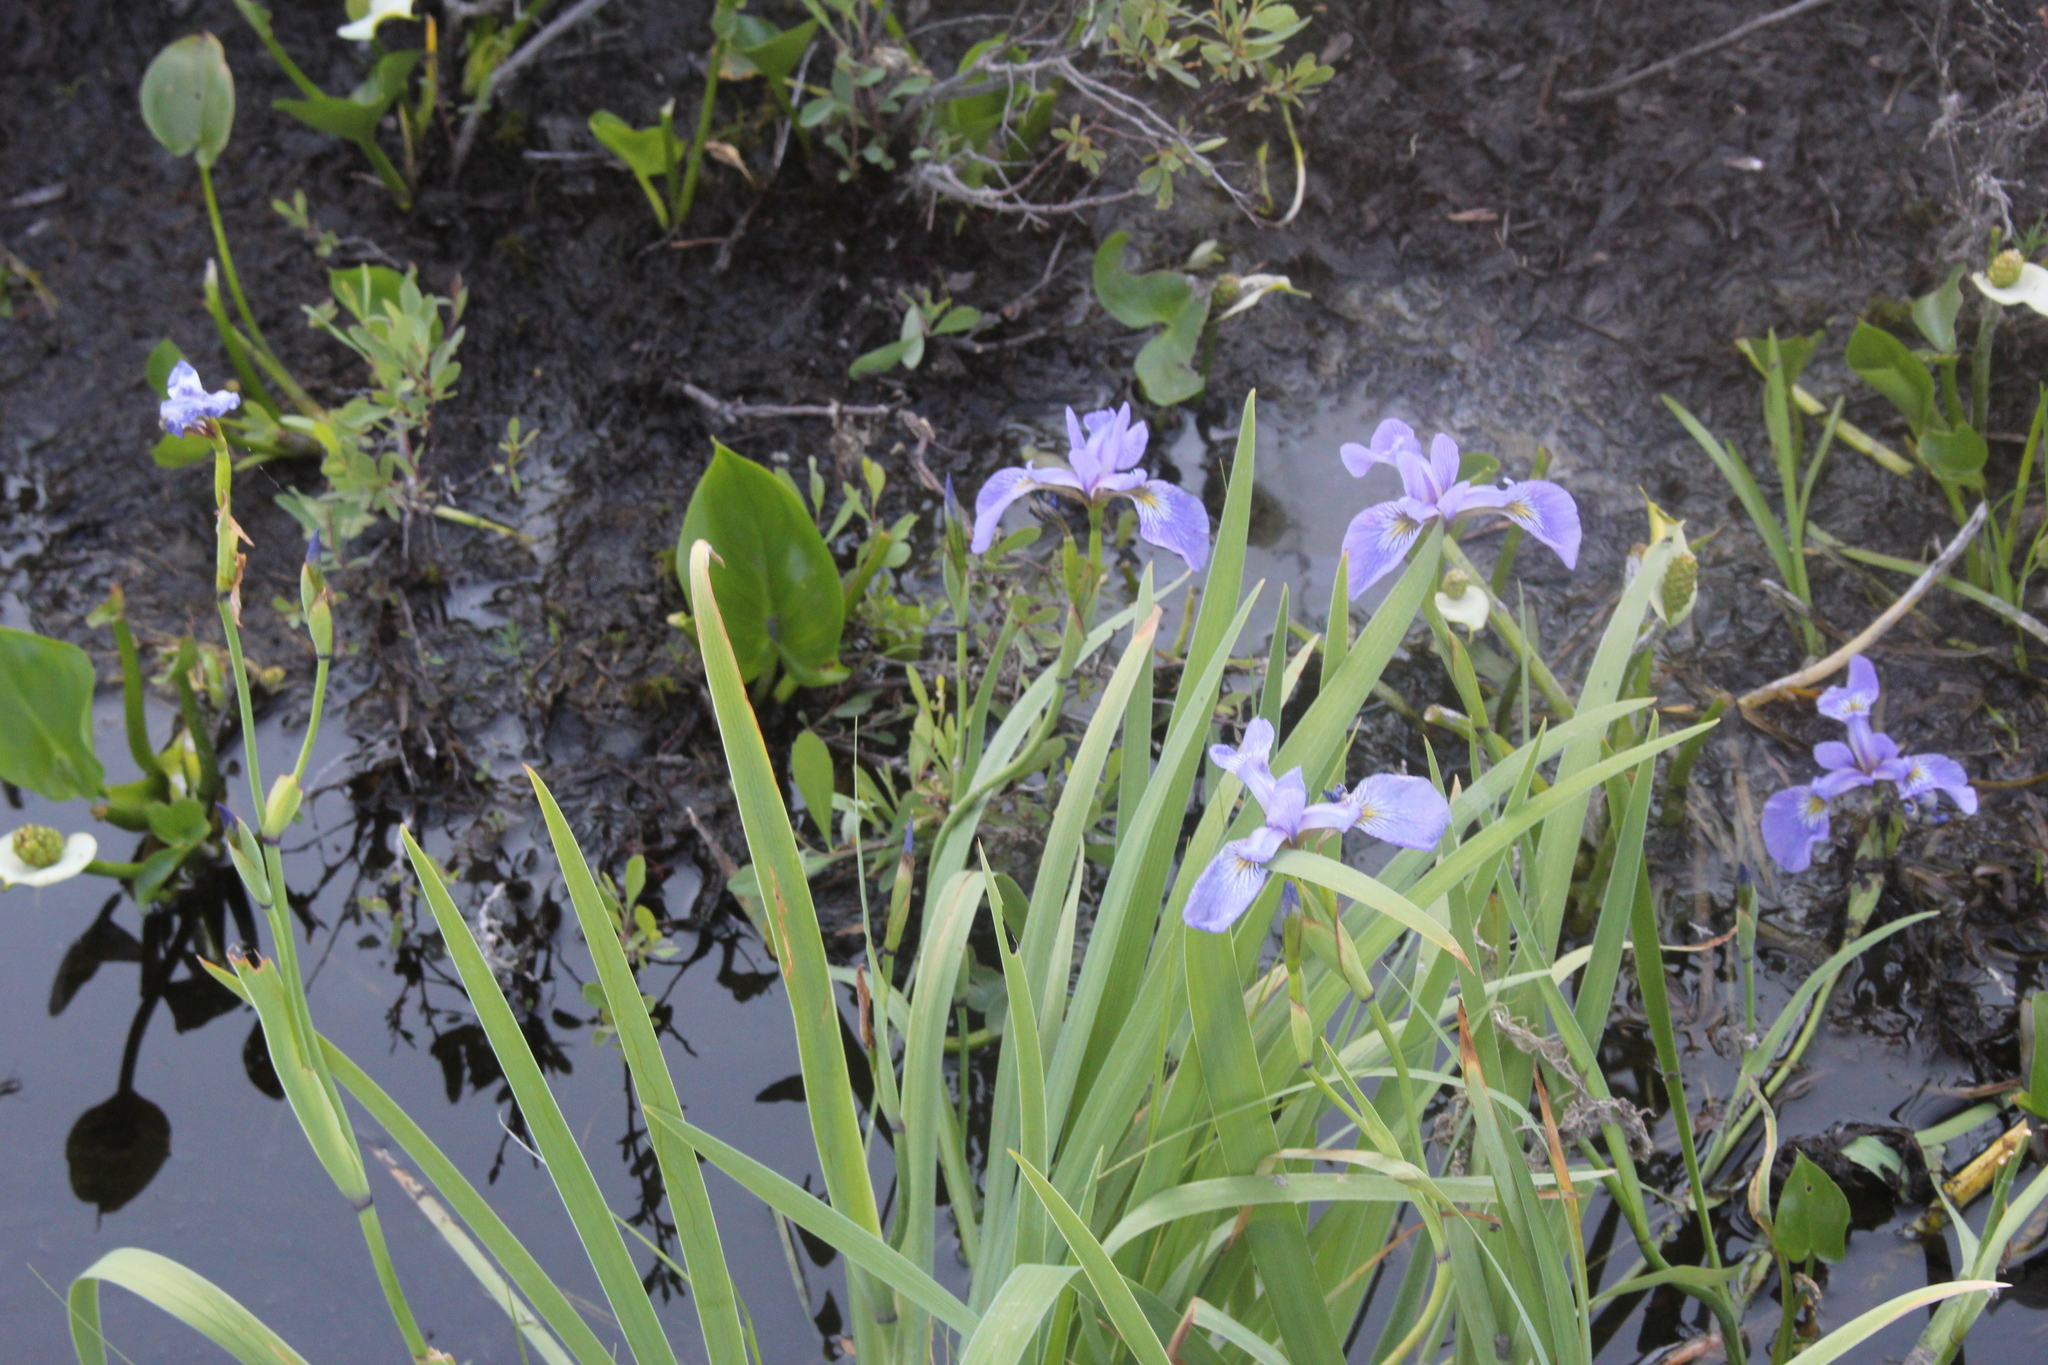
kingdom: Plantae
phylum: Tracheophyta
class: Liliopsida
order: Asparagales
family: Iridaceae
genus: Iris
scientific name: Iris versicolor
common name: Purple iris
